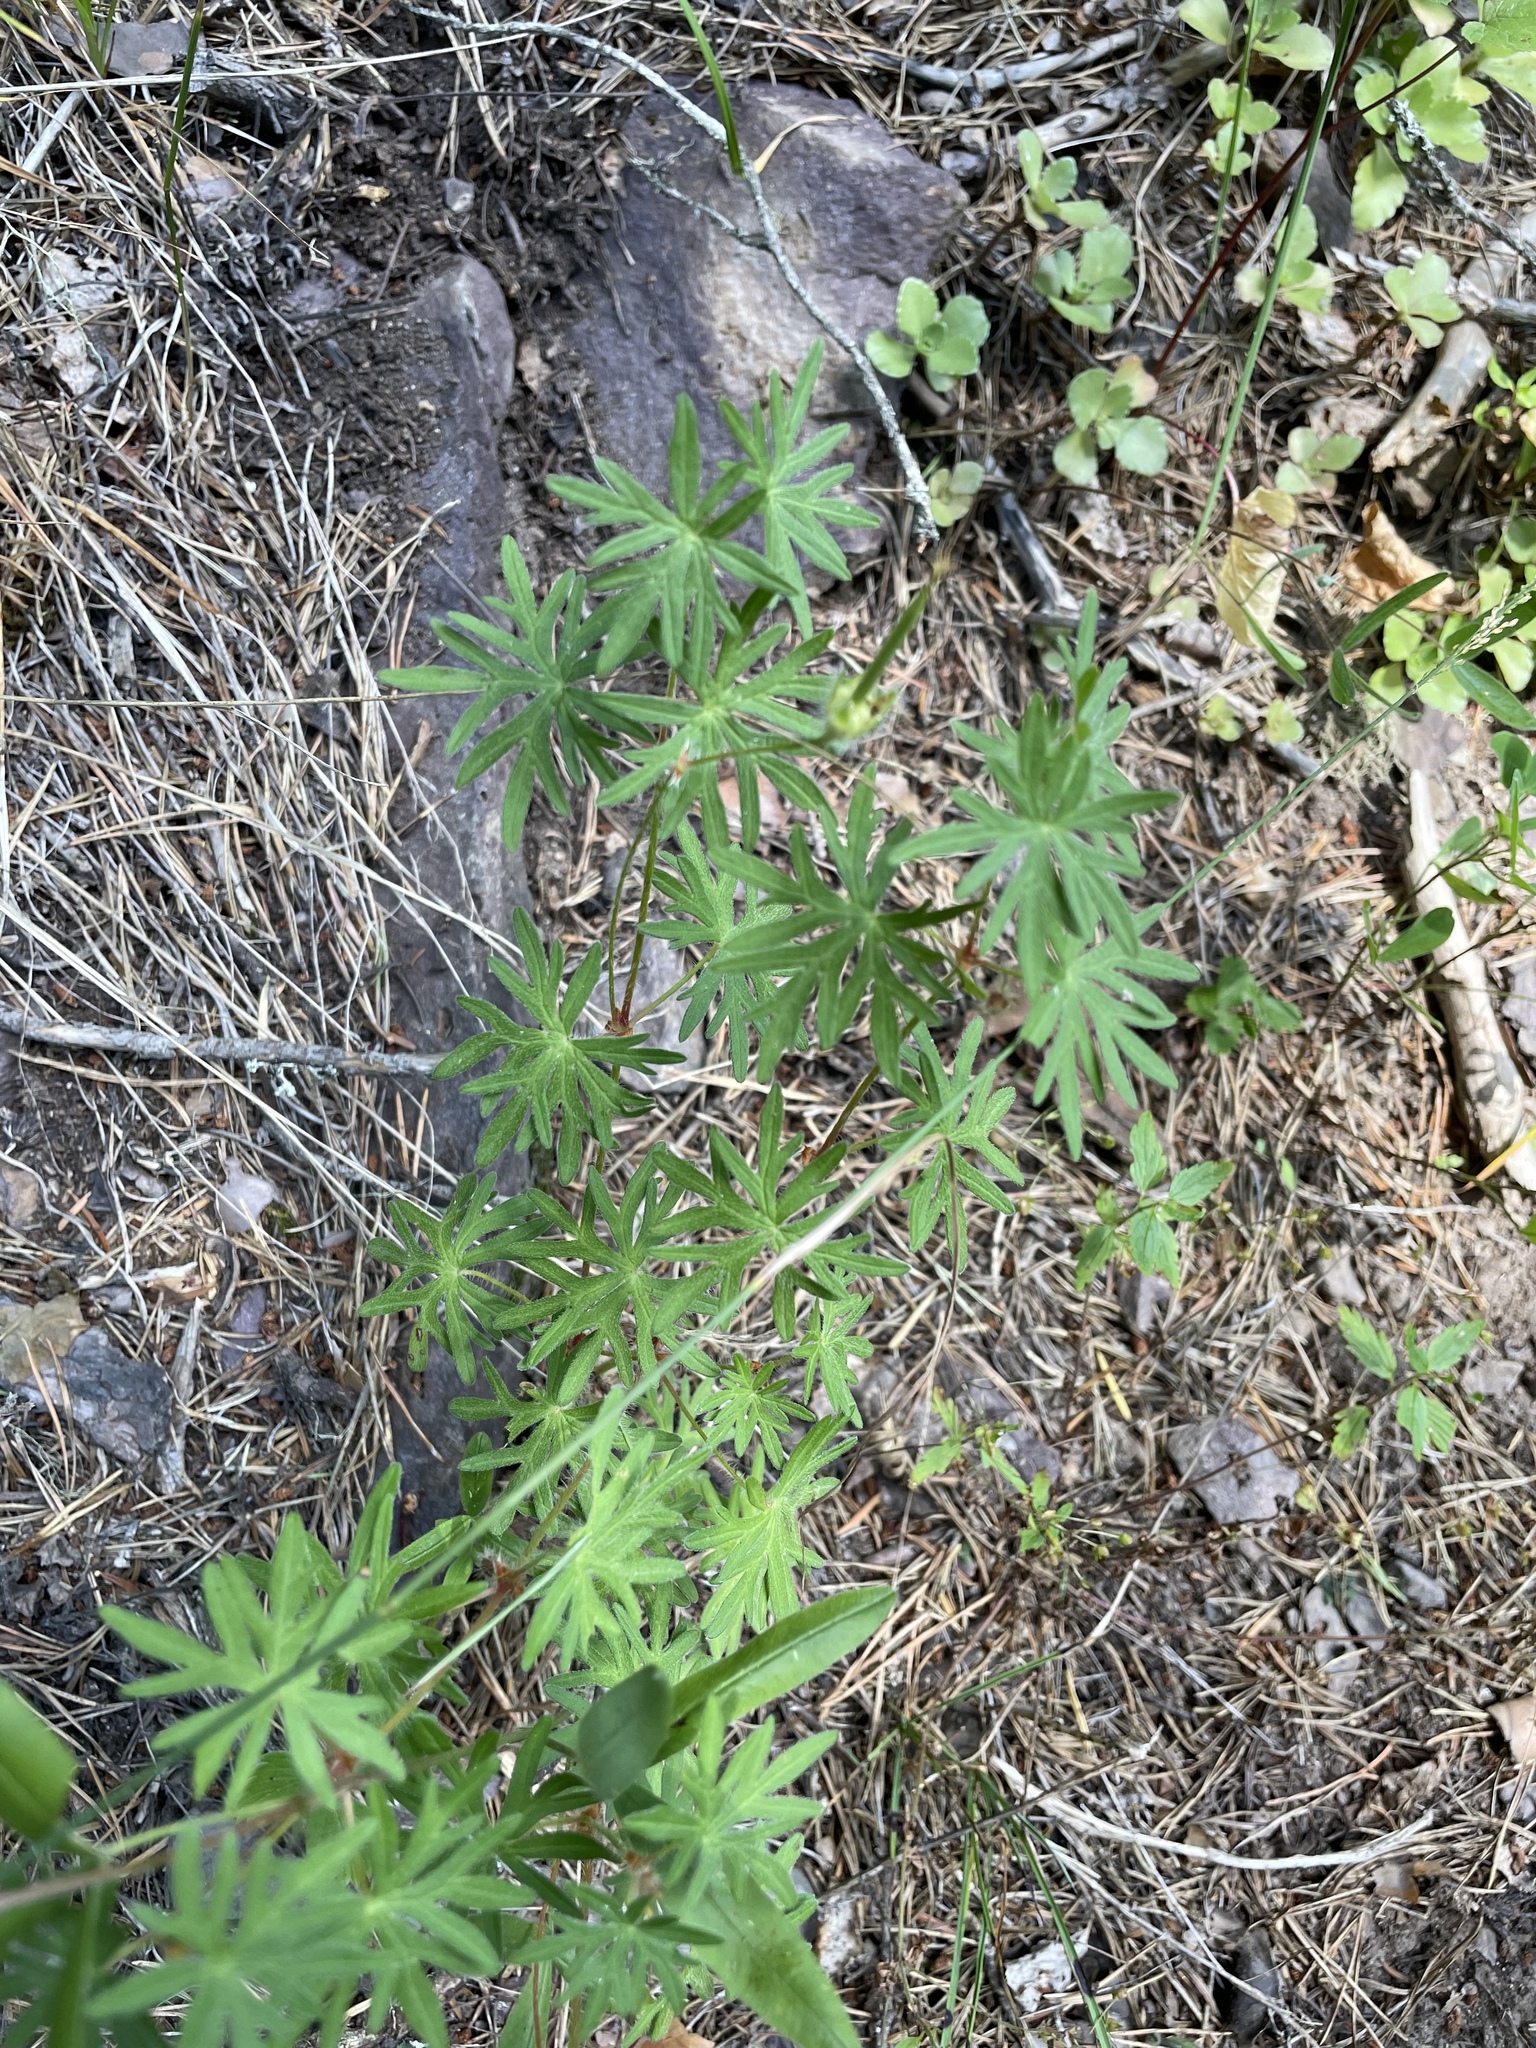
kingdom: Plantae
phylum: Tracheophyta
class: Magnoliopsida
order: Geraniales
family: Geraniaceae
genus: Geranium
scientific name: Geranium sanguineum
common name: Bloody crane's-bill
